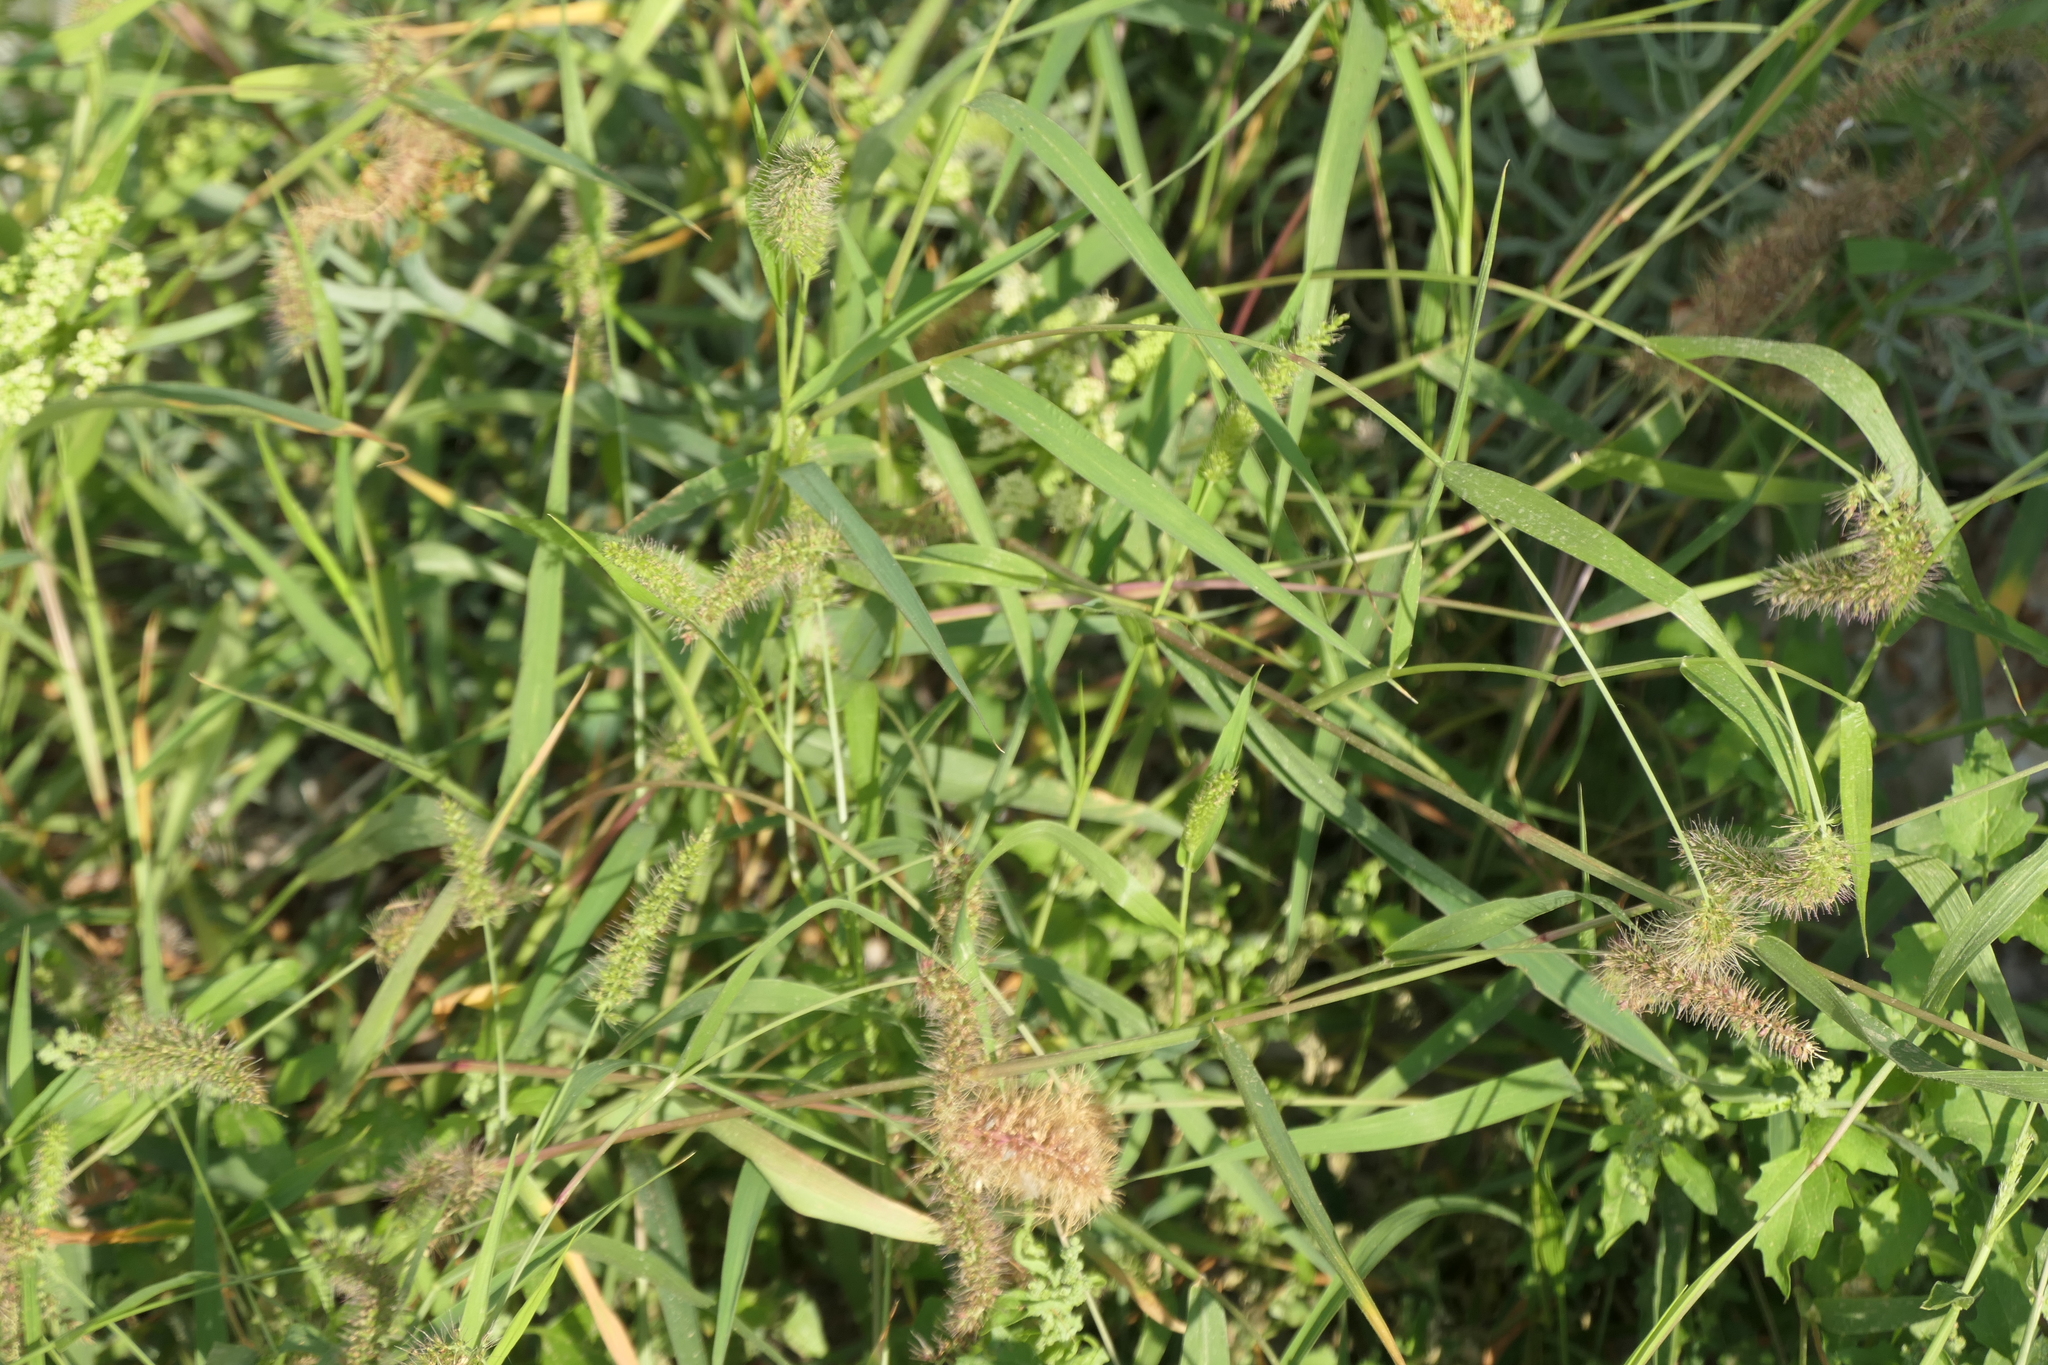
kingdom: Plantae
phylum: Tracheophyta
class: Liliopsida
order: Poales
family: Poaceae
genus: Setaria
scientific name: Setaria verticillata
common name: Hooked bristlegrass
